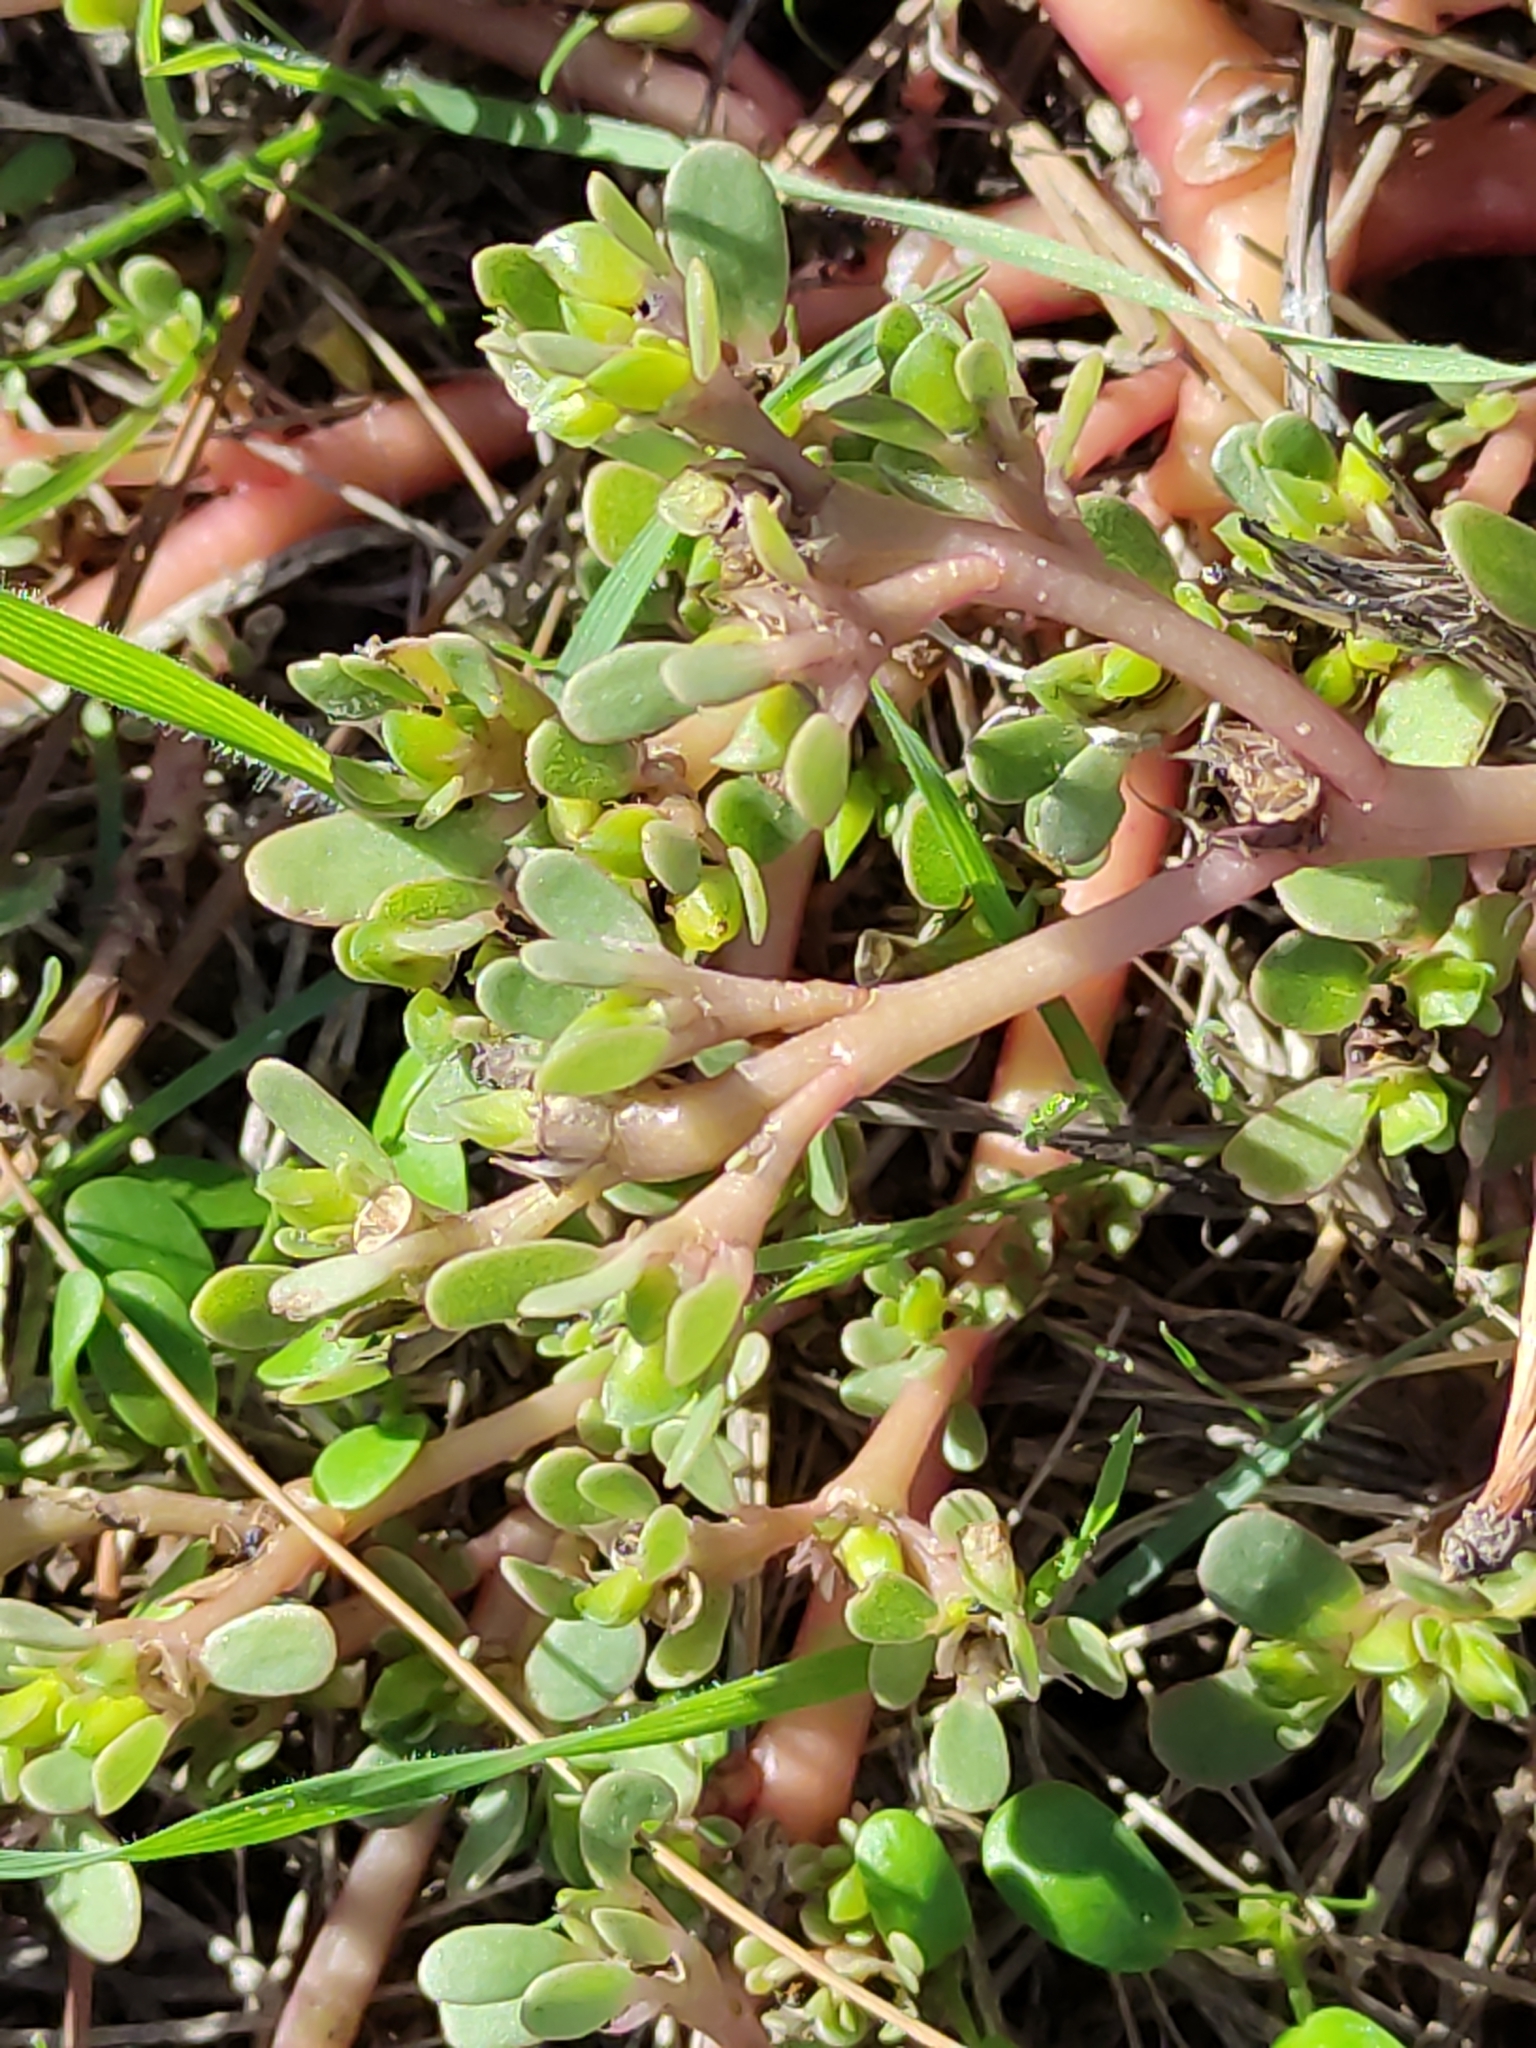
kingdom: Plantae
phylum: Tracheophyta
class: Magnoliopsida
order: Caryophyllales
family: Portulacaceae
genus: Portulaca
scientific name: Portulaca oleracea
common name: Common purslane
